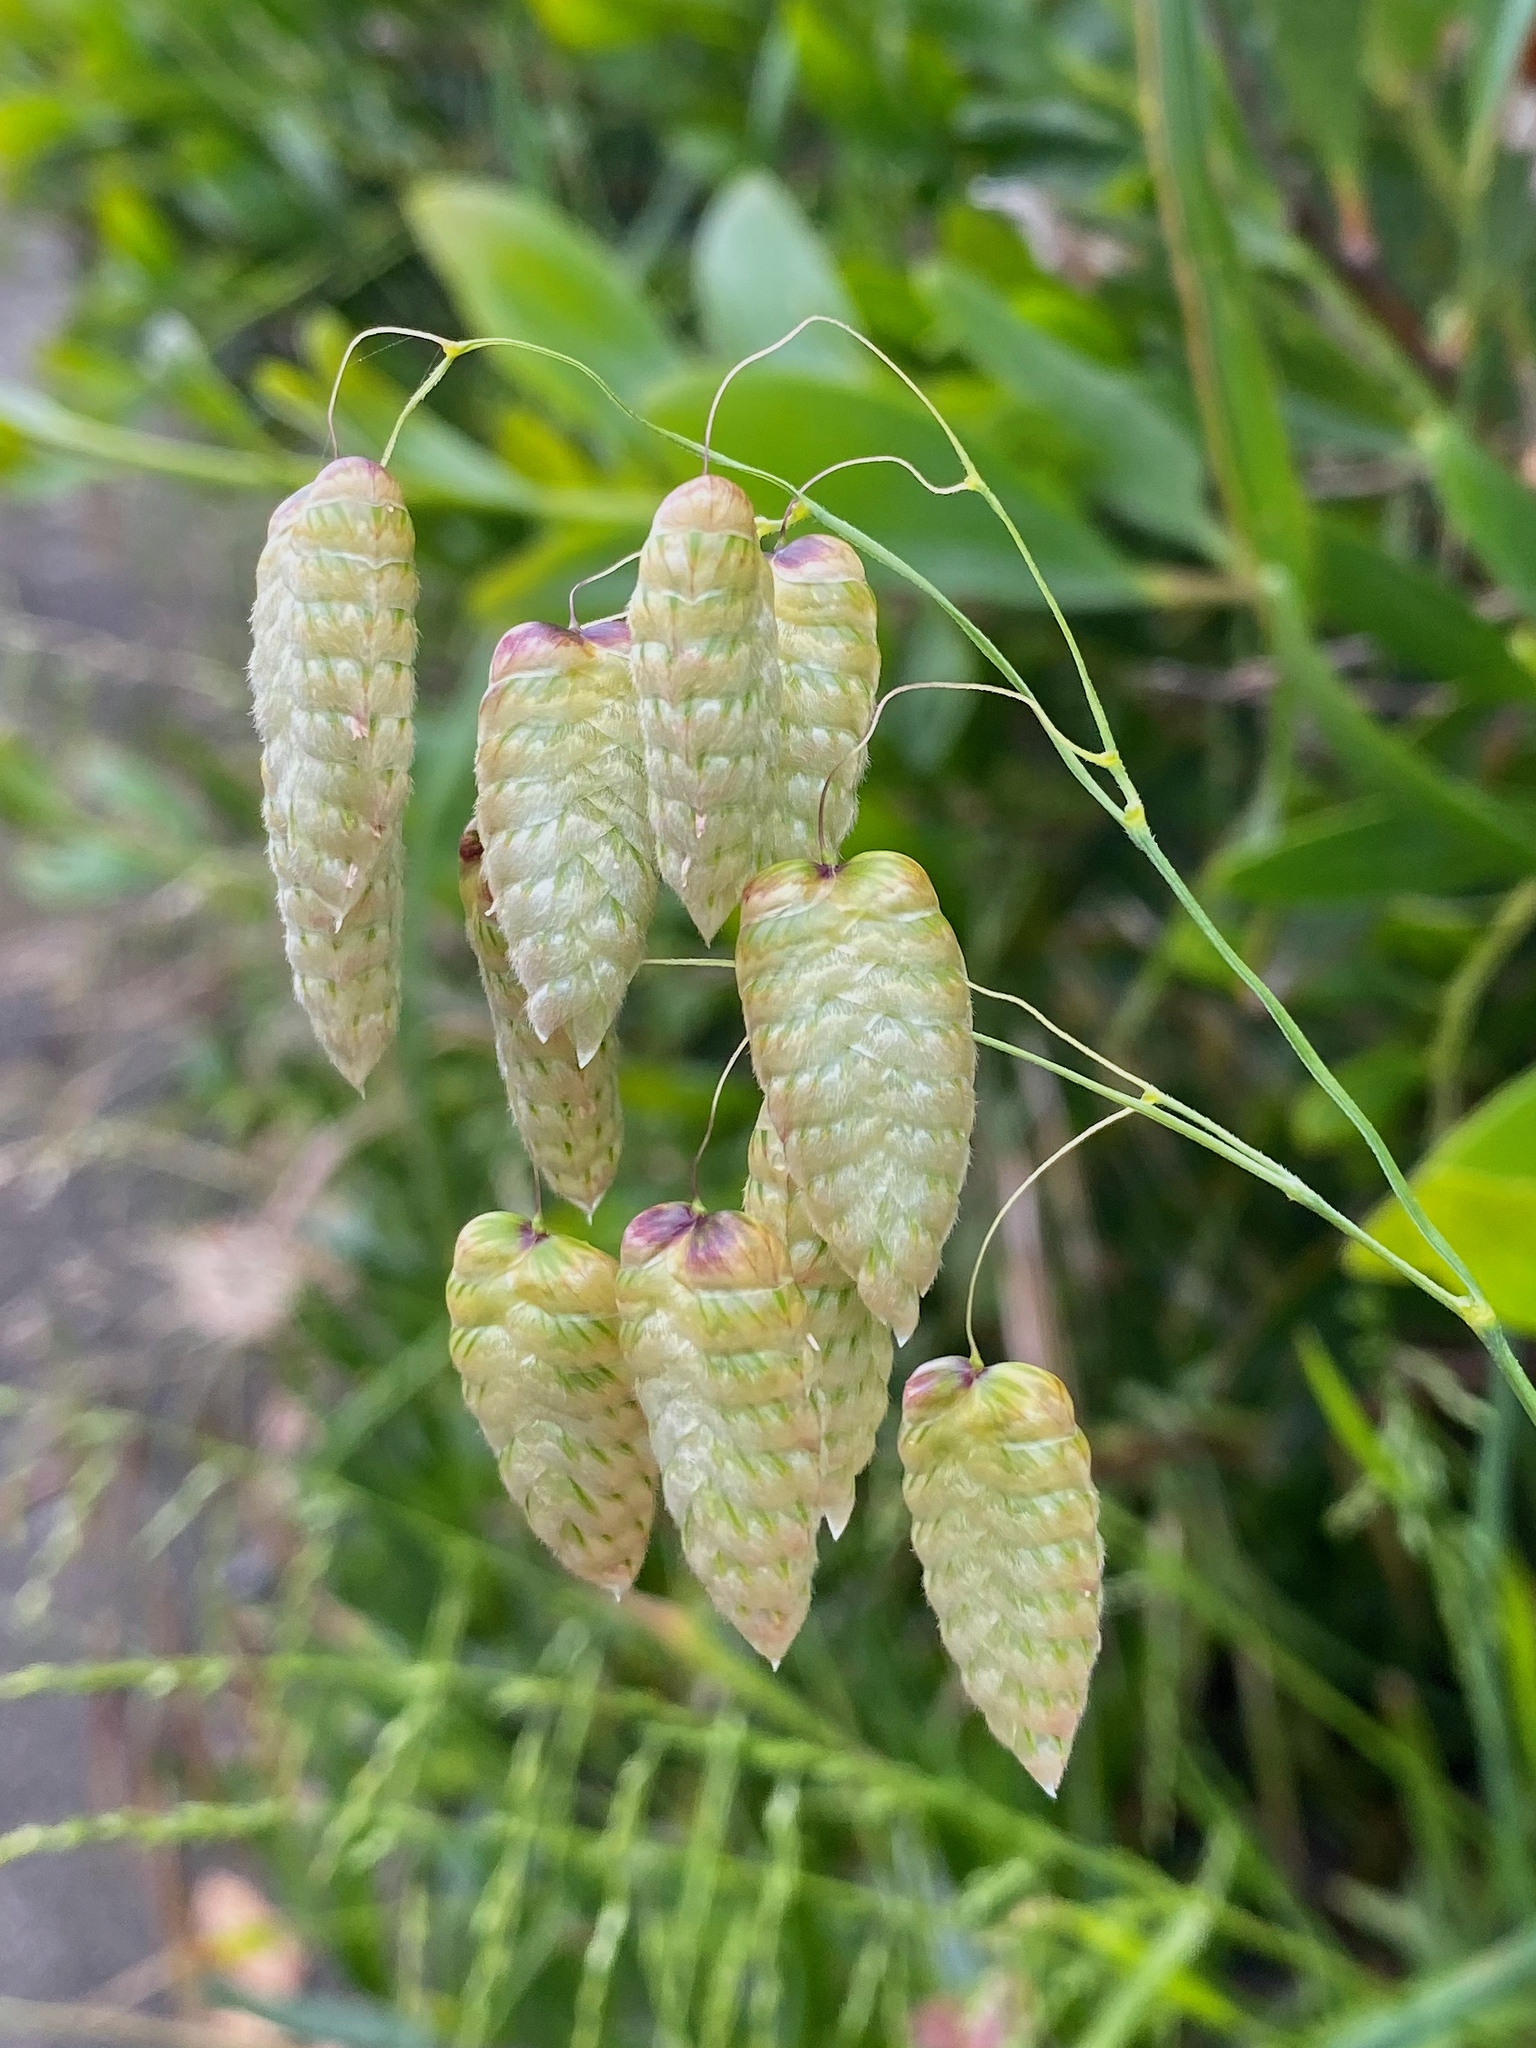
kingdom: Plantae
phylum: Tracheophyta
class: Liliopsida
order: Poales
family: Poaceae
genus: Briza
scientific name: Briza maxima
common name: Big quakinggrass
